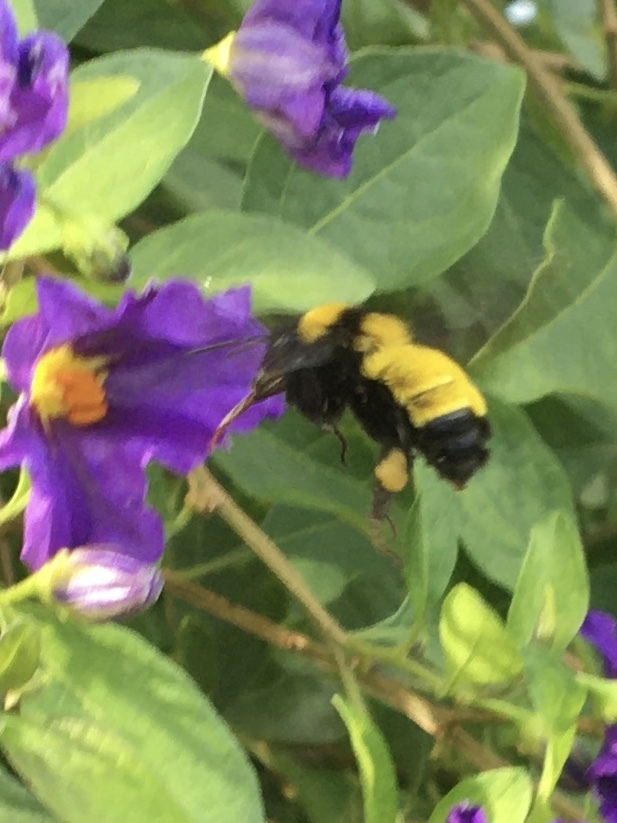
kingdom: Animalia
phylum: Arthropoda
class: Insecta
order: Hymenoptera
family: Apidae
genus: Bombus
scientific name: Bombus sonorus
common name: Sonoran bumble bee
